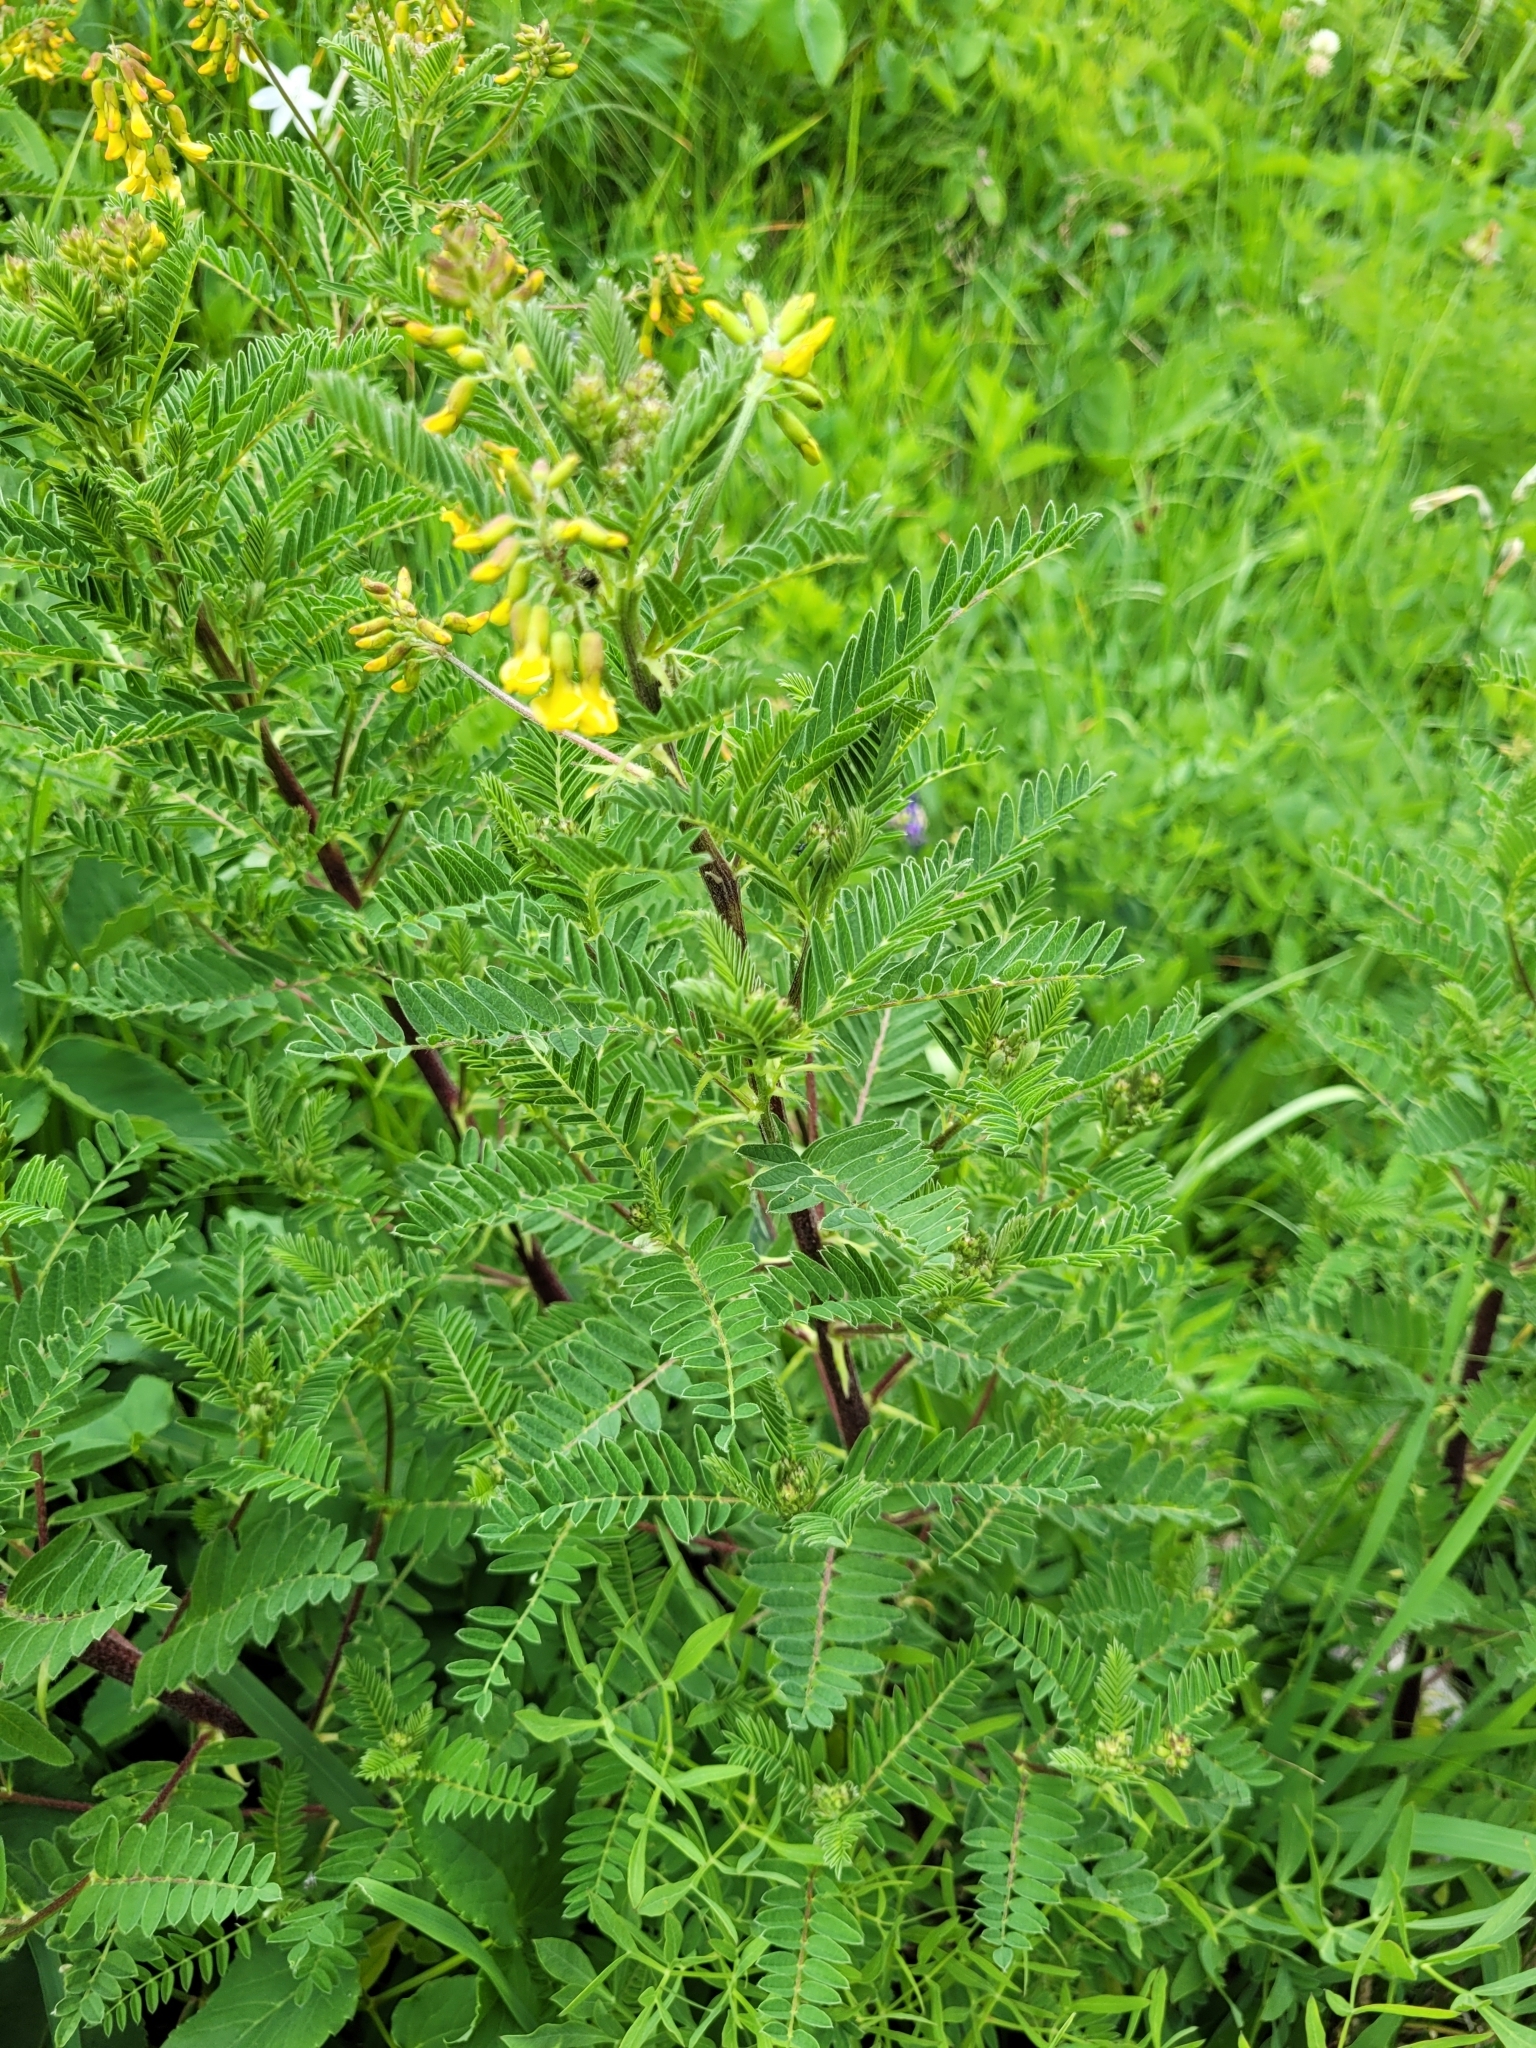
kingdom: Plantae
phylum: Tracheophyta
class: Magnoliopsida
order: Fabales
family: Fabaceae
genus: Astragalus
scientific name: Astragalus penduliflorus
